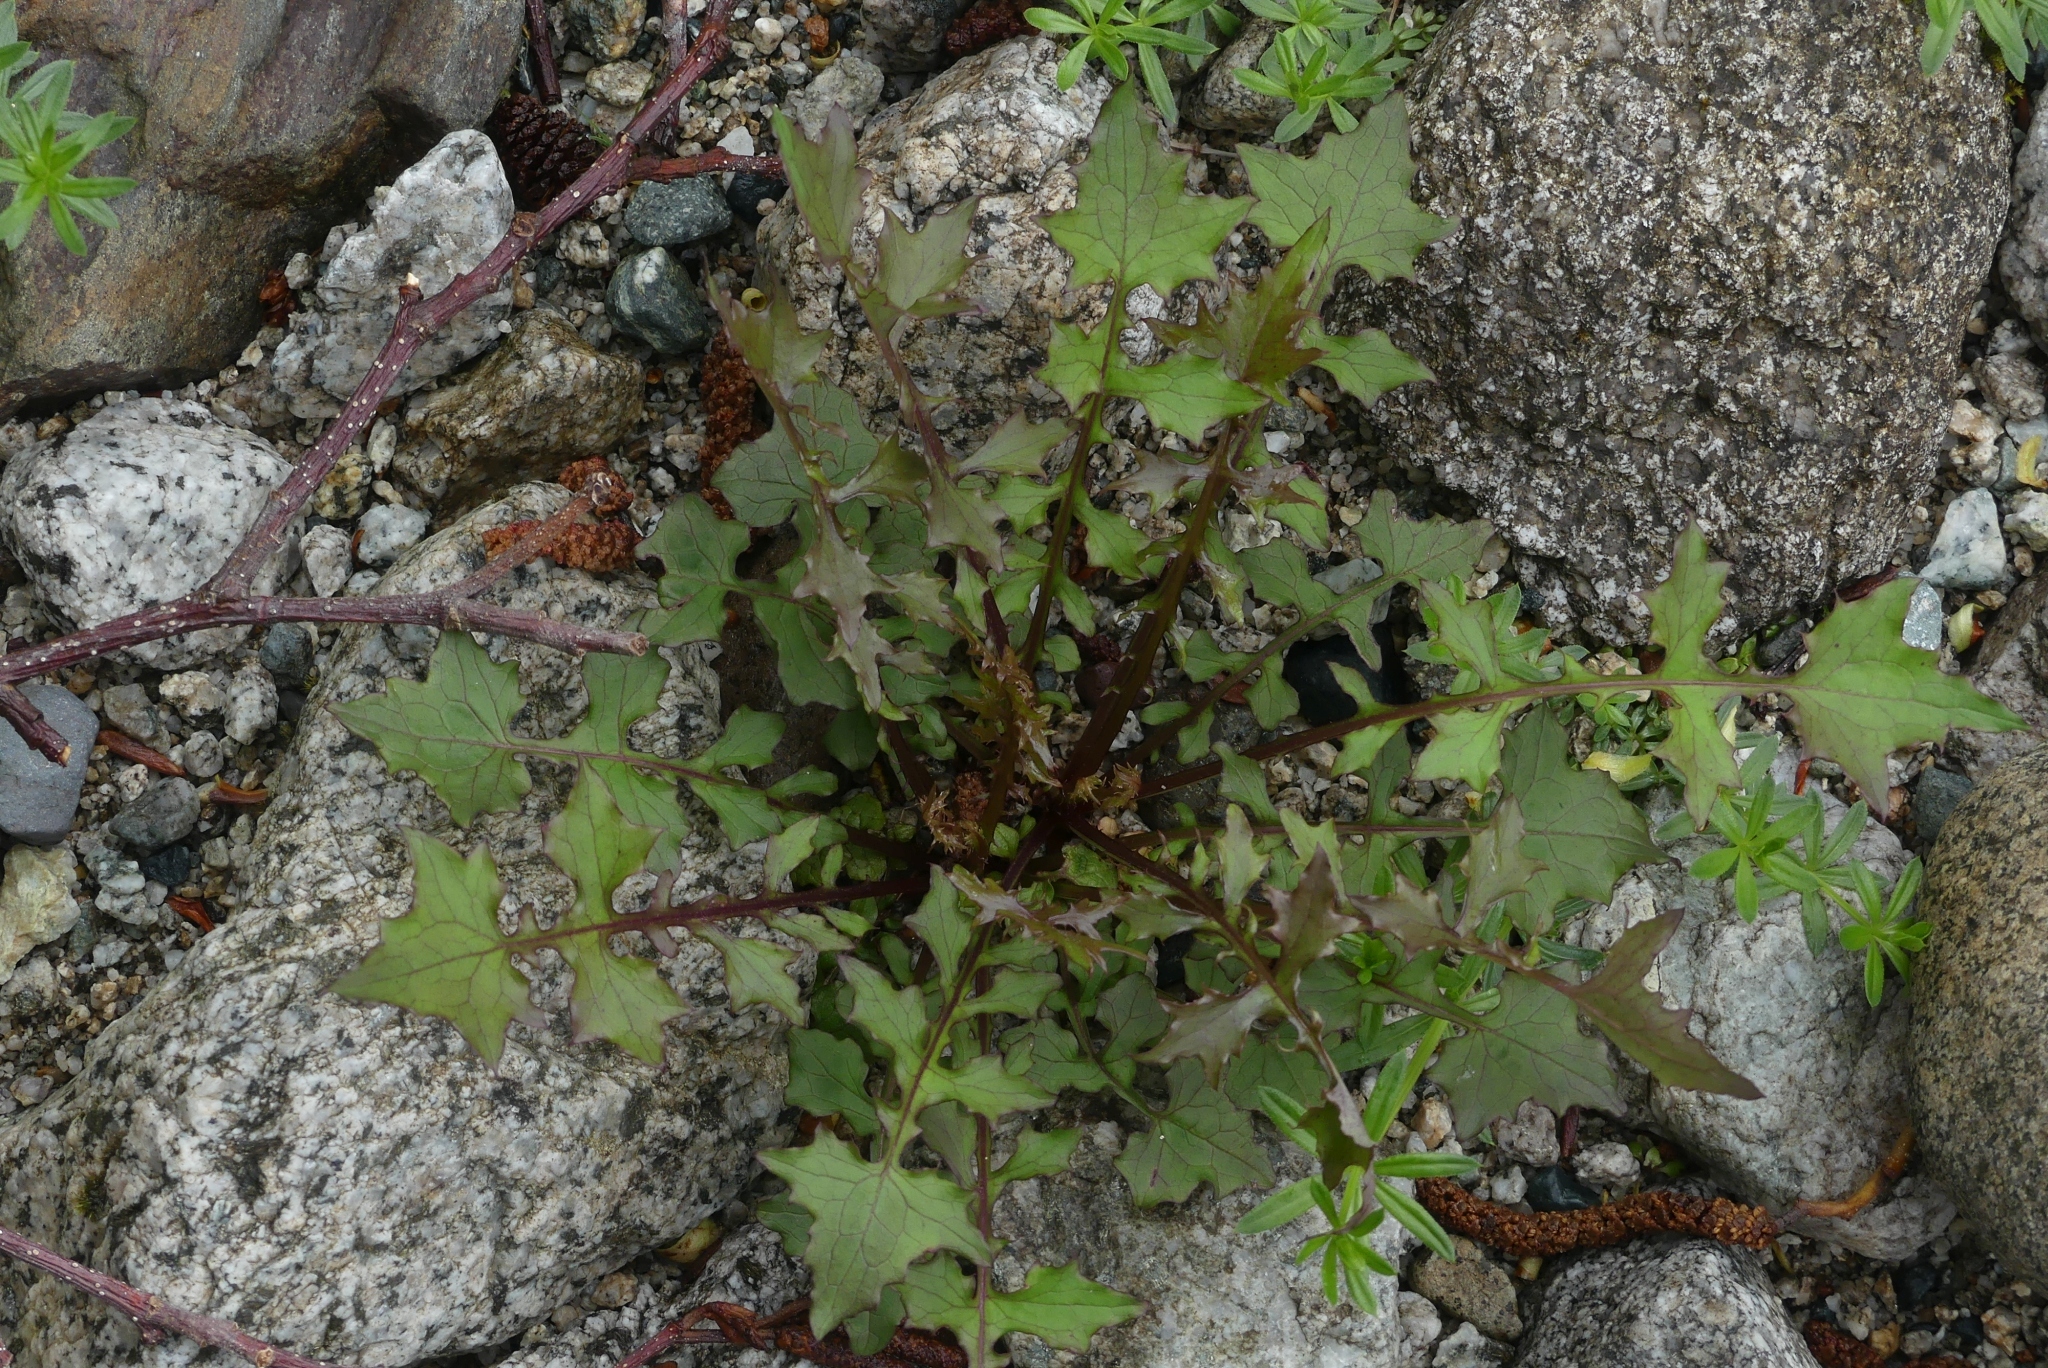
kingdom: Plantae
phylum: Tracheophyta
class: Magnoliopsida
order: Asterales
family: Asteraceae
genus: Mycelis
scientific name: Mycelis muralis
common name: Wall lettuce
